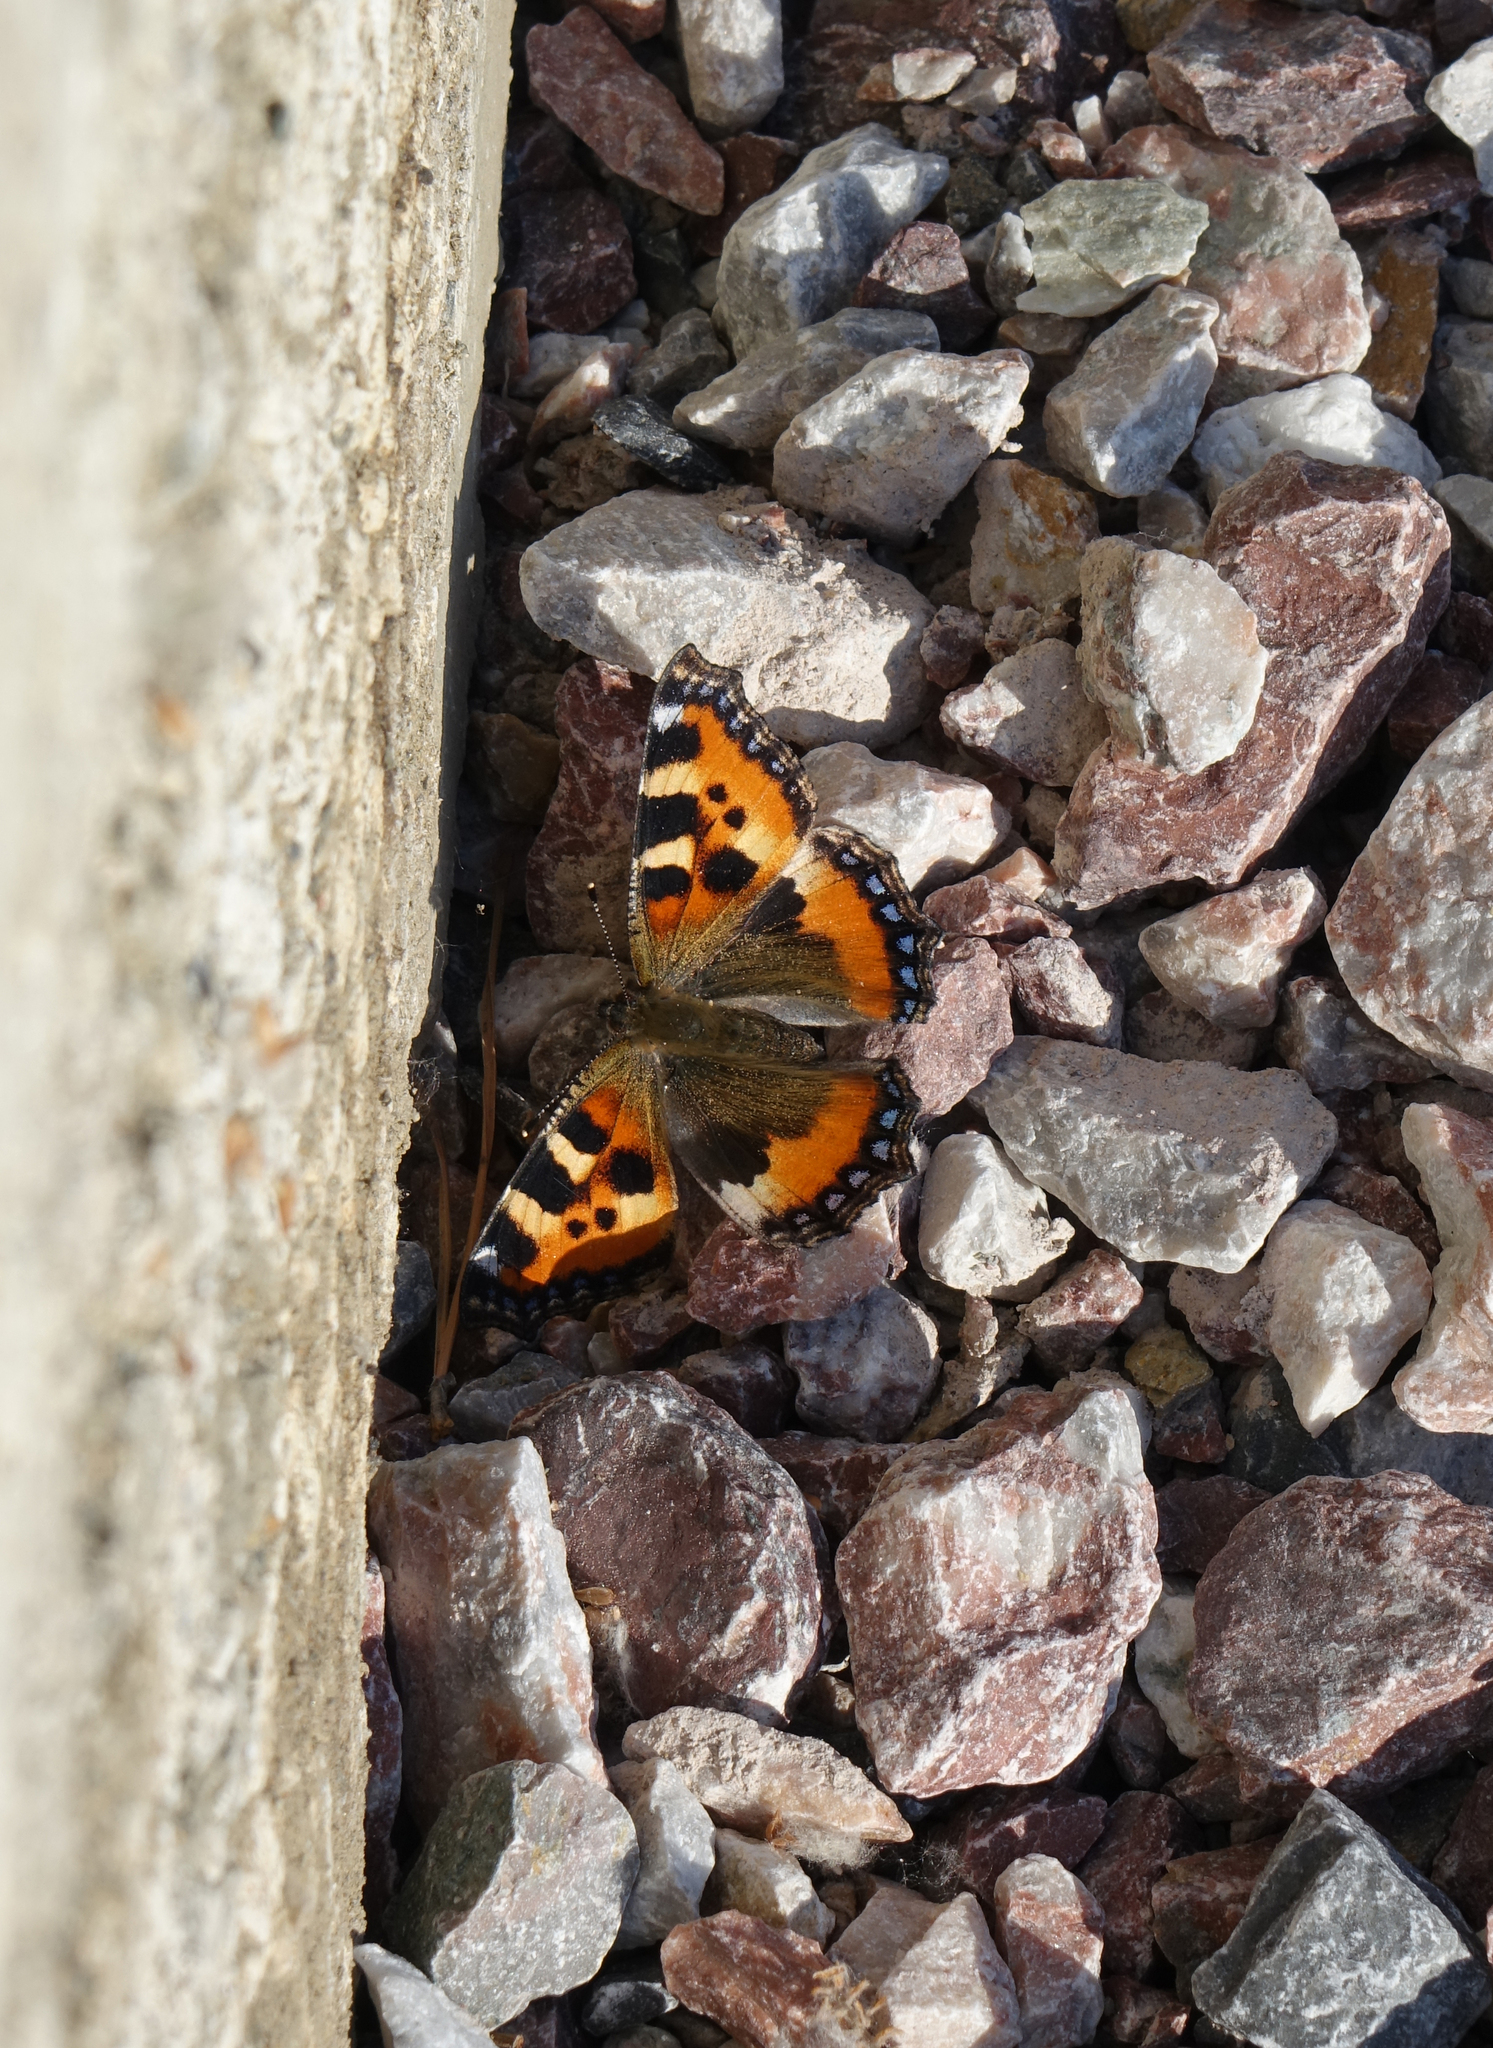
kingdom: Animalia
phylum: Arthropoda
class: Insecta
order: Lepidoptera
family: Nymphalidae
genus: Aglais
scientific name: Aglais urticae
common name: Small tortoiseshell
